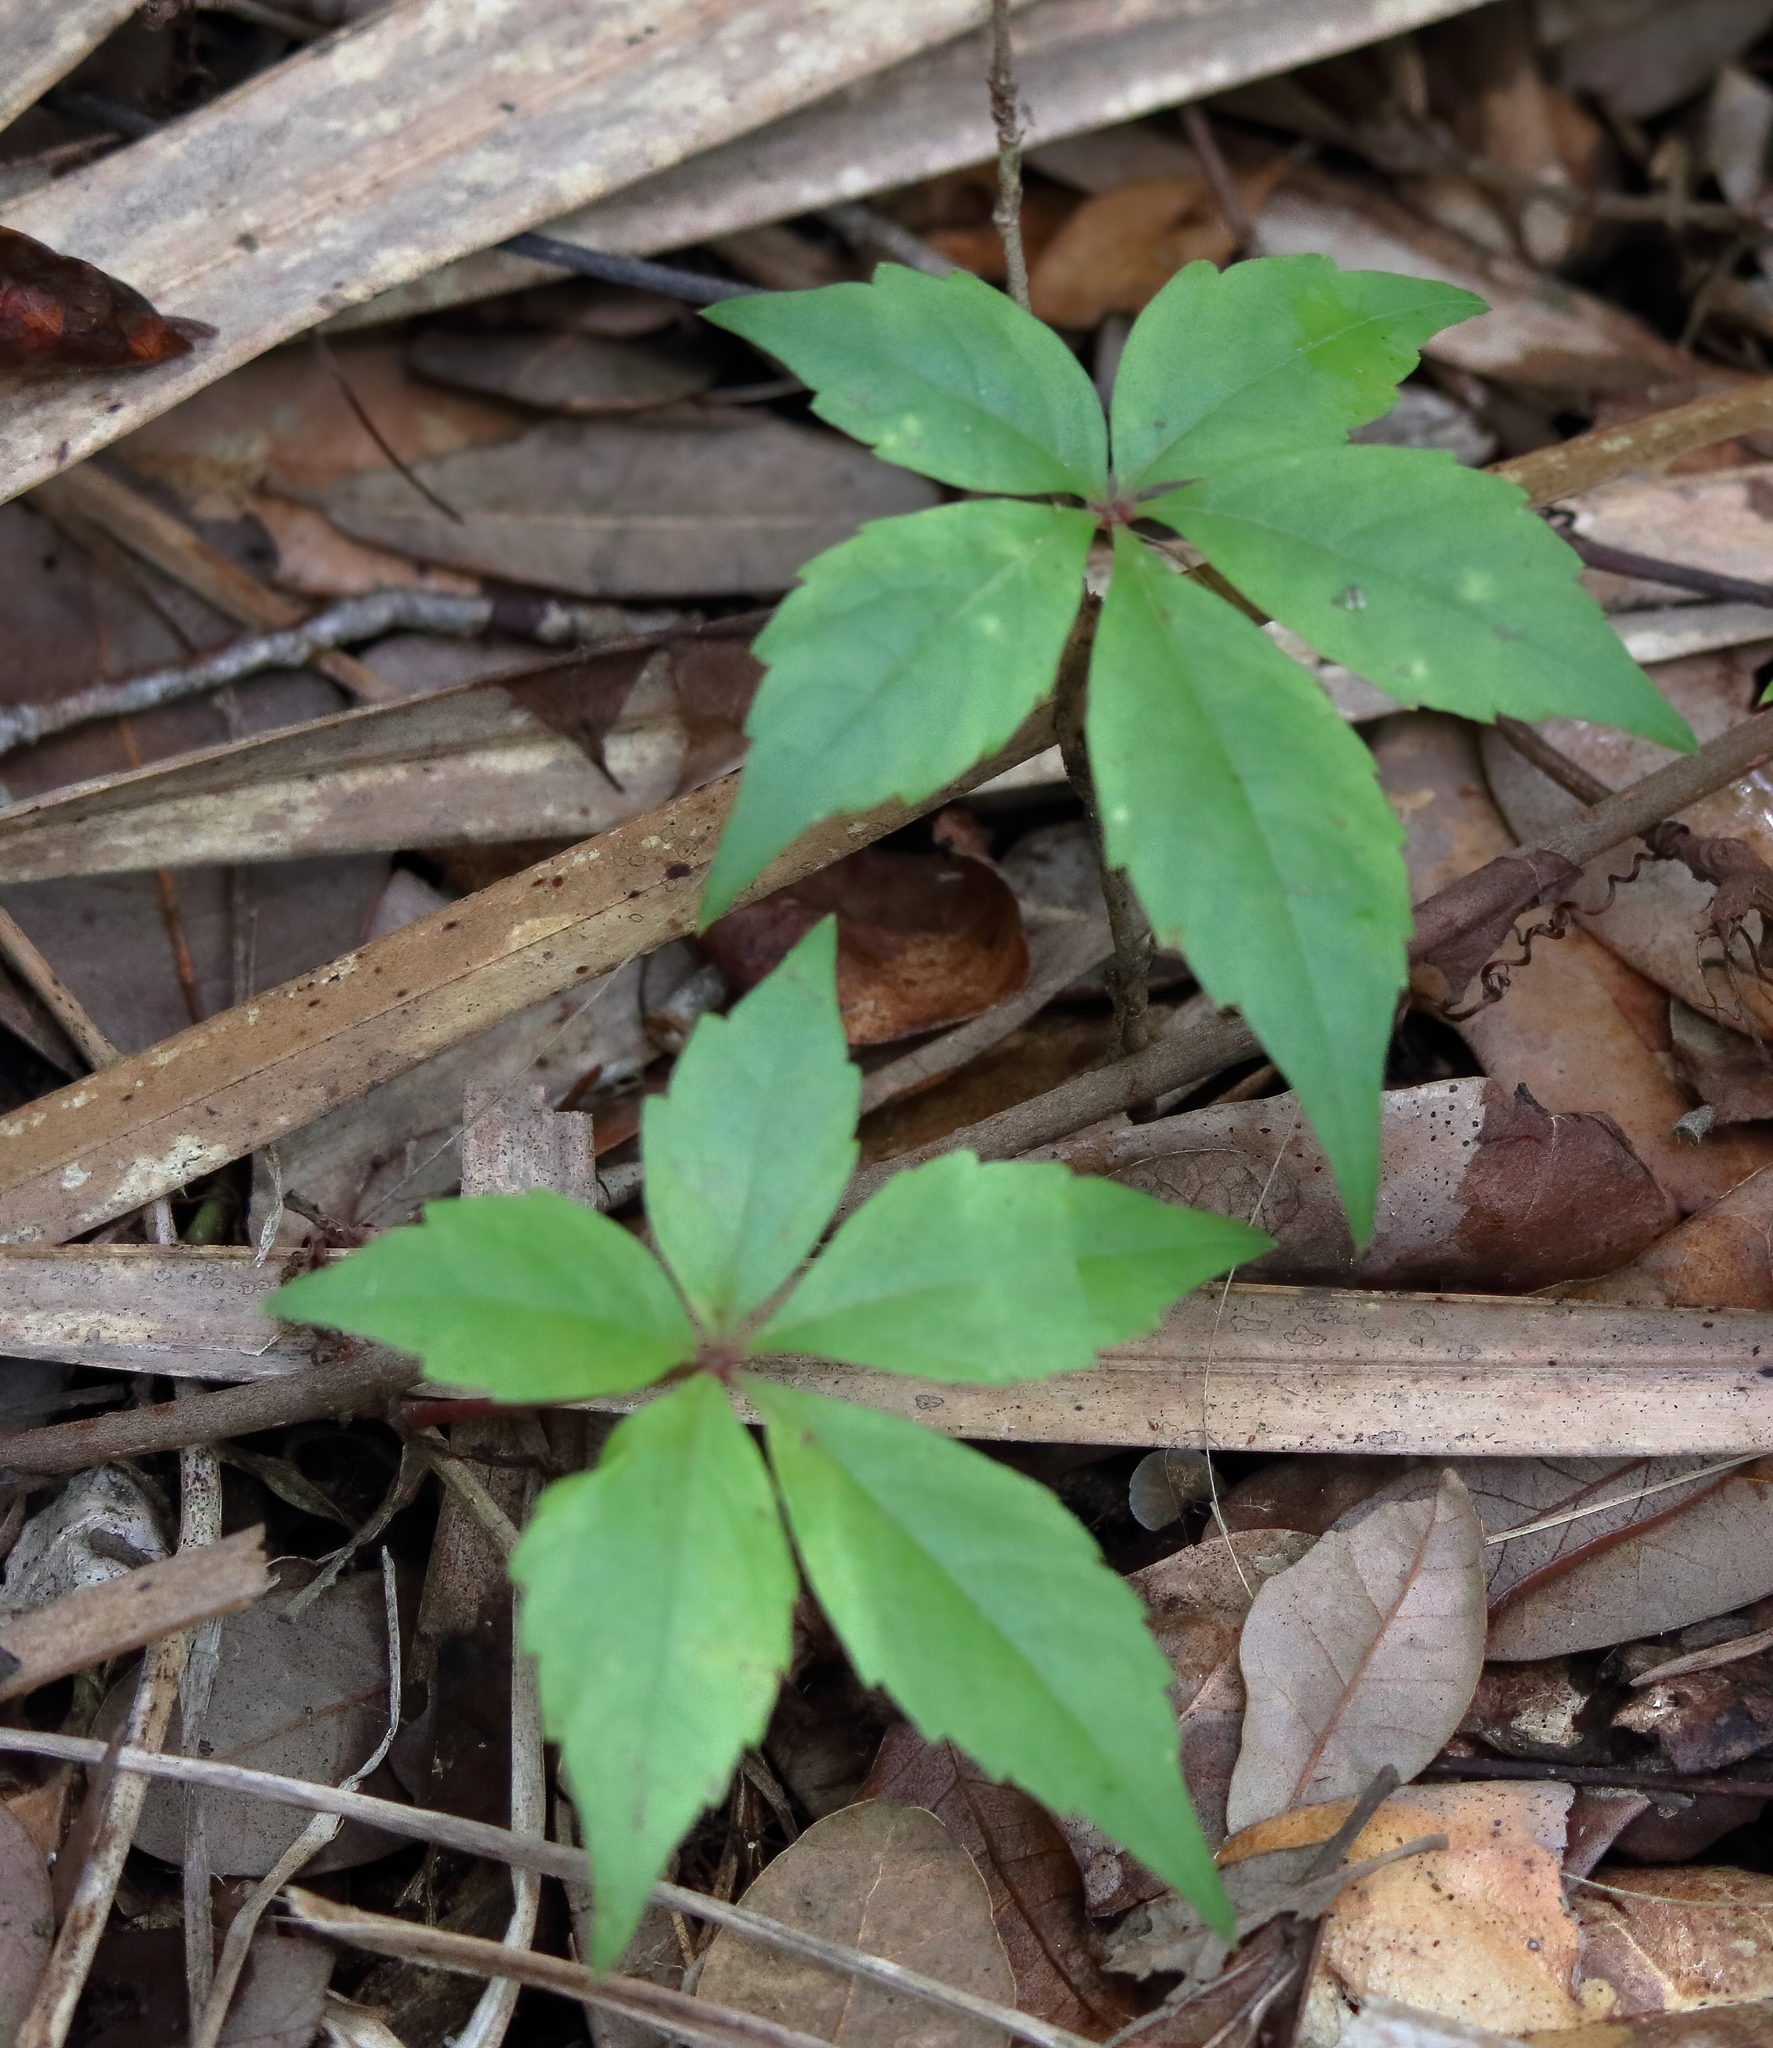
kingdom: Plantae
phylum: Tracheophyta
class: Magnoliopsida
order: Vitales
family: Vitaceae
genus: Parthenocissus
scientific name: Parthenocissus quinquefolia
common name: Virginia-creeper
